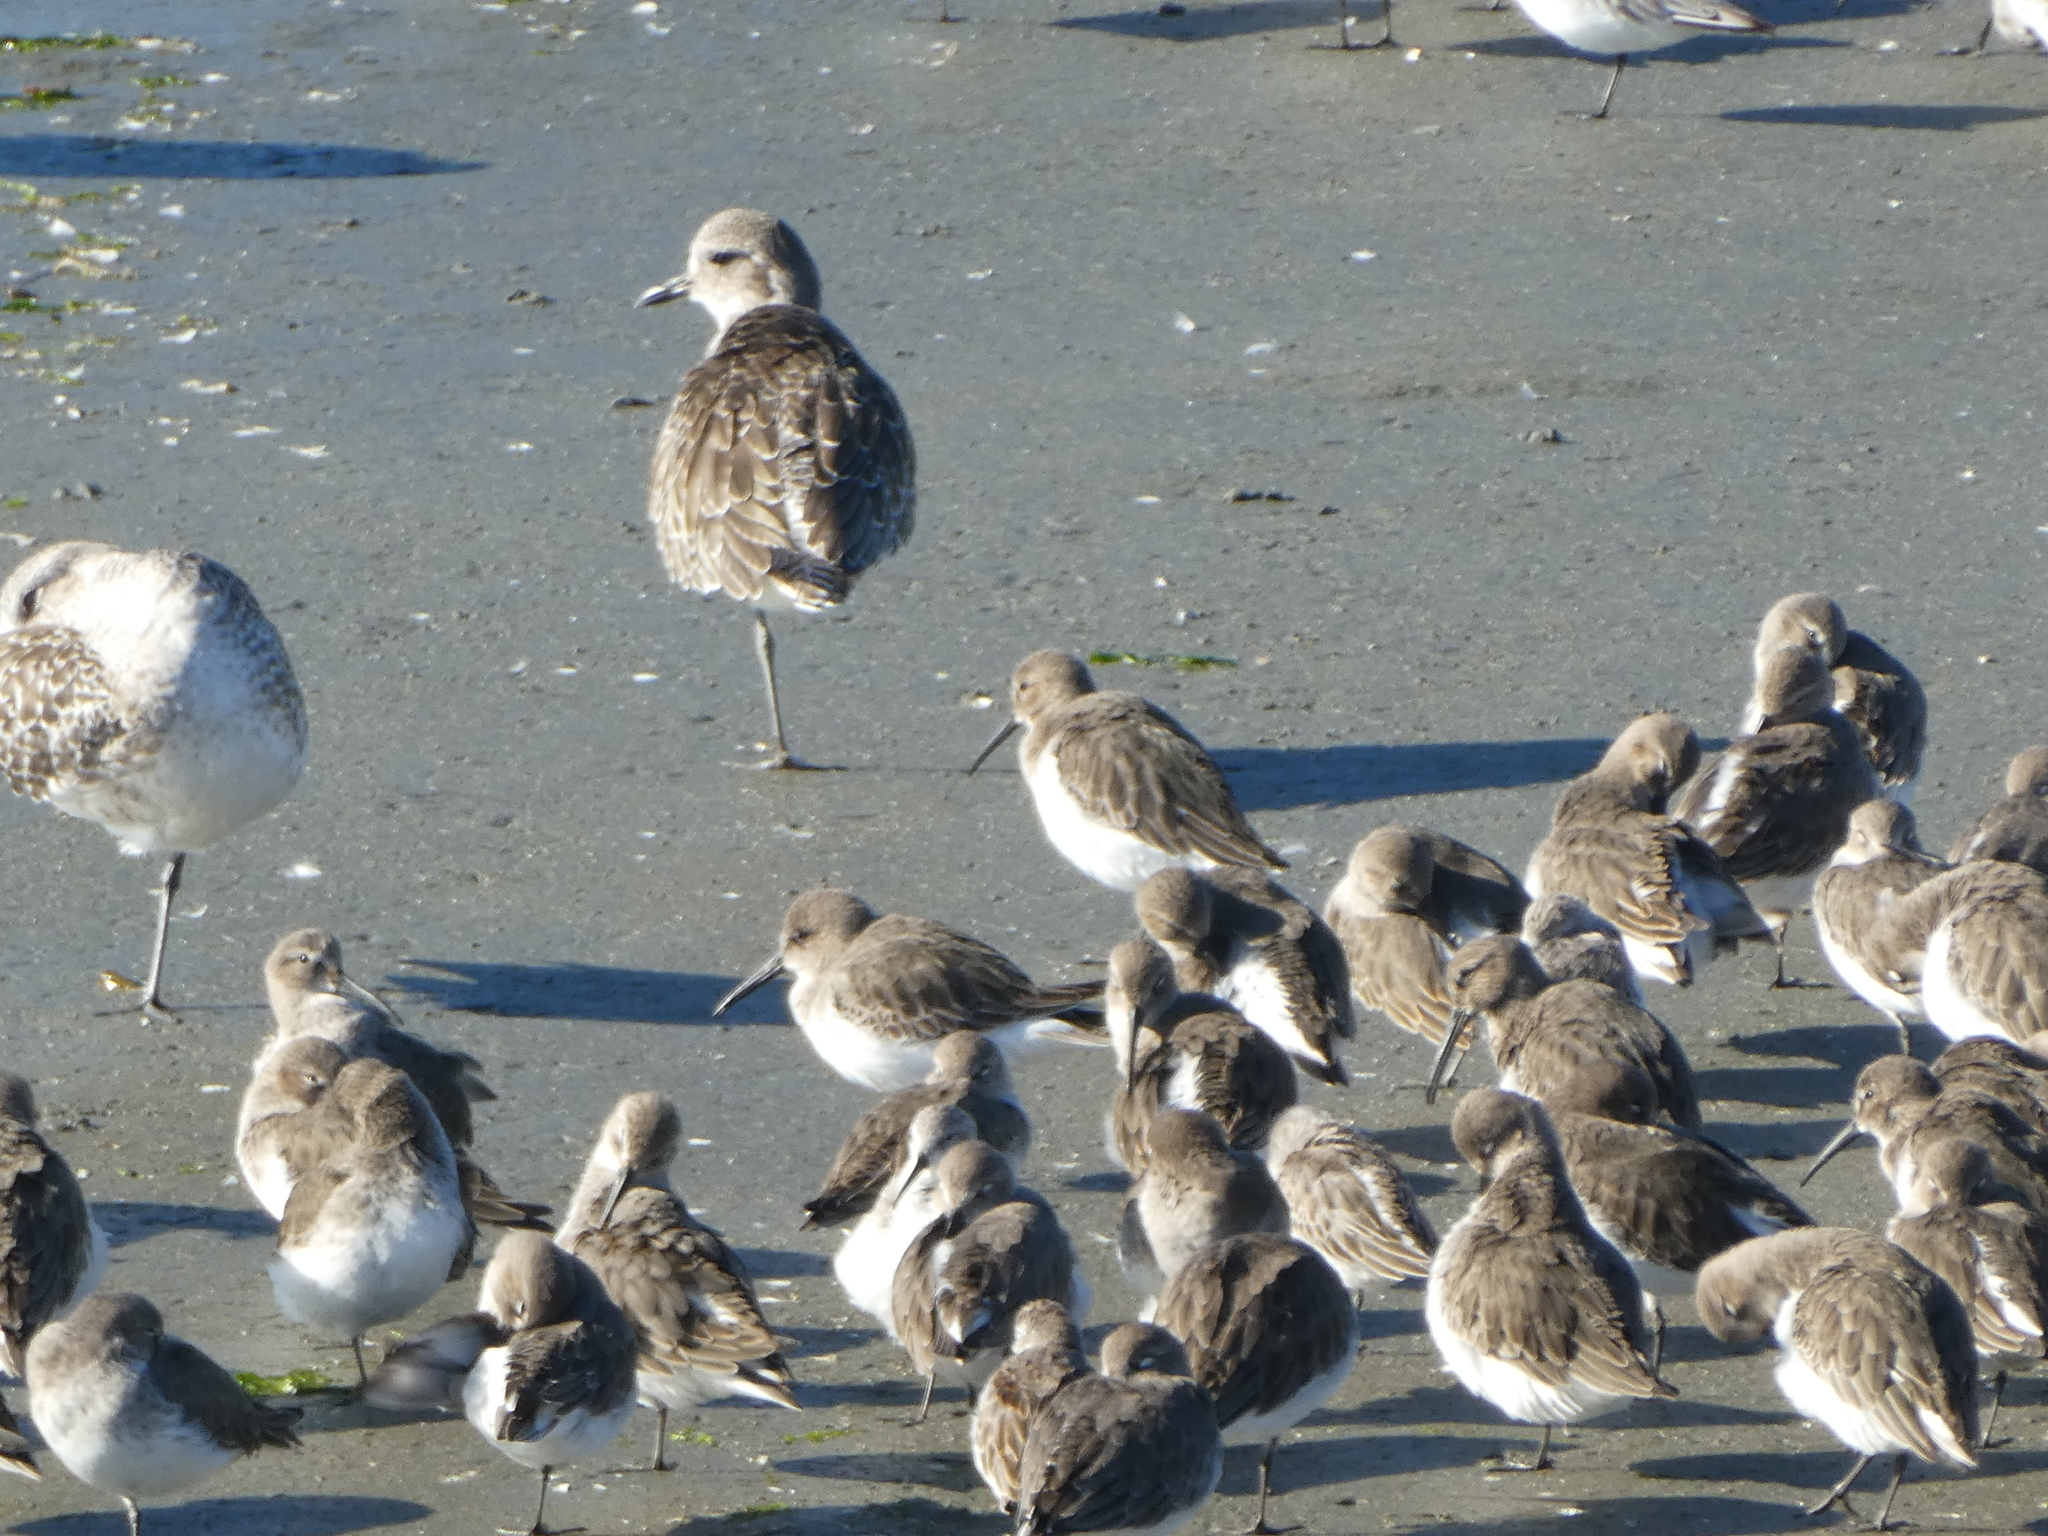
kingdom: Animalia
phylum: Chordata
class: Aves
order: Charadriiformes
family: Scolopacidae
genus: Calidris
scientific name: Calidris alpina
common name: Dunlin
